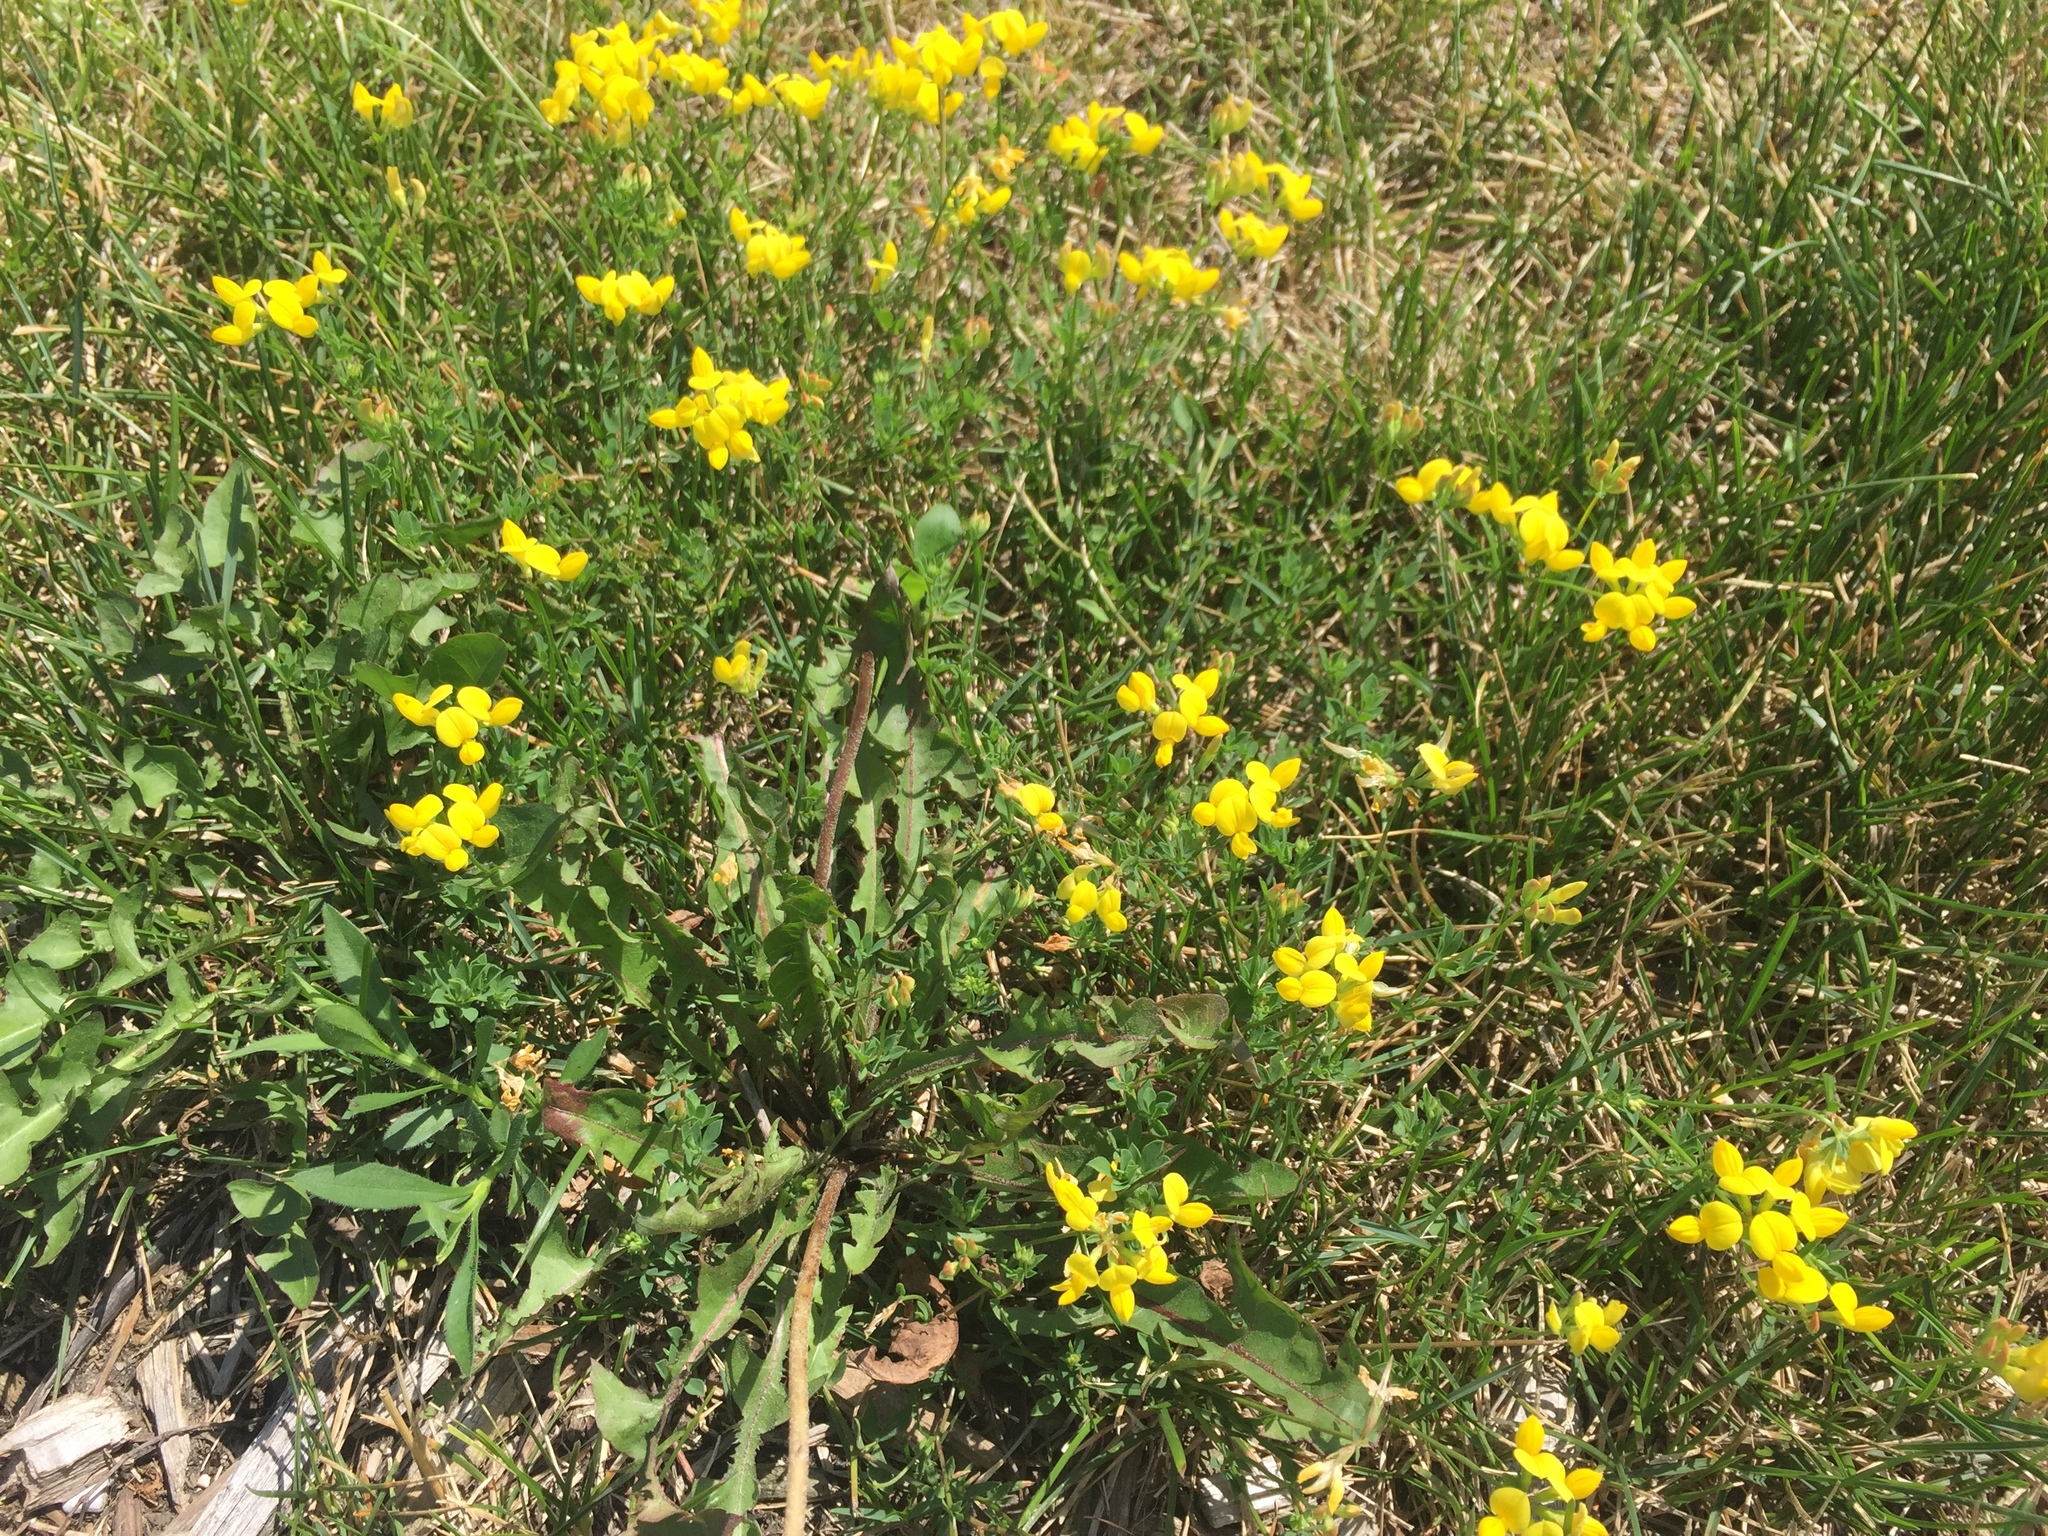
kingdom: Plantae
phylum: Tracheophyta
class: Magnoliopsida
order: Fabales
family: Fabaceae
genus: Lotus
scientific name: Lotus corniculatus
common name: Common bird's-foot-trefoil
